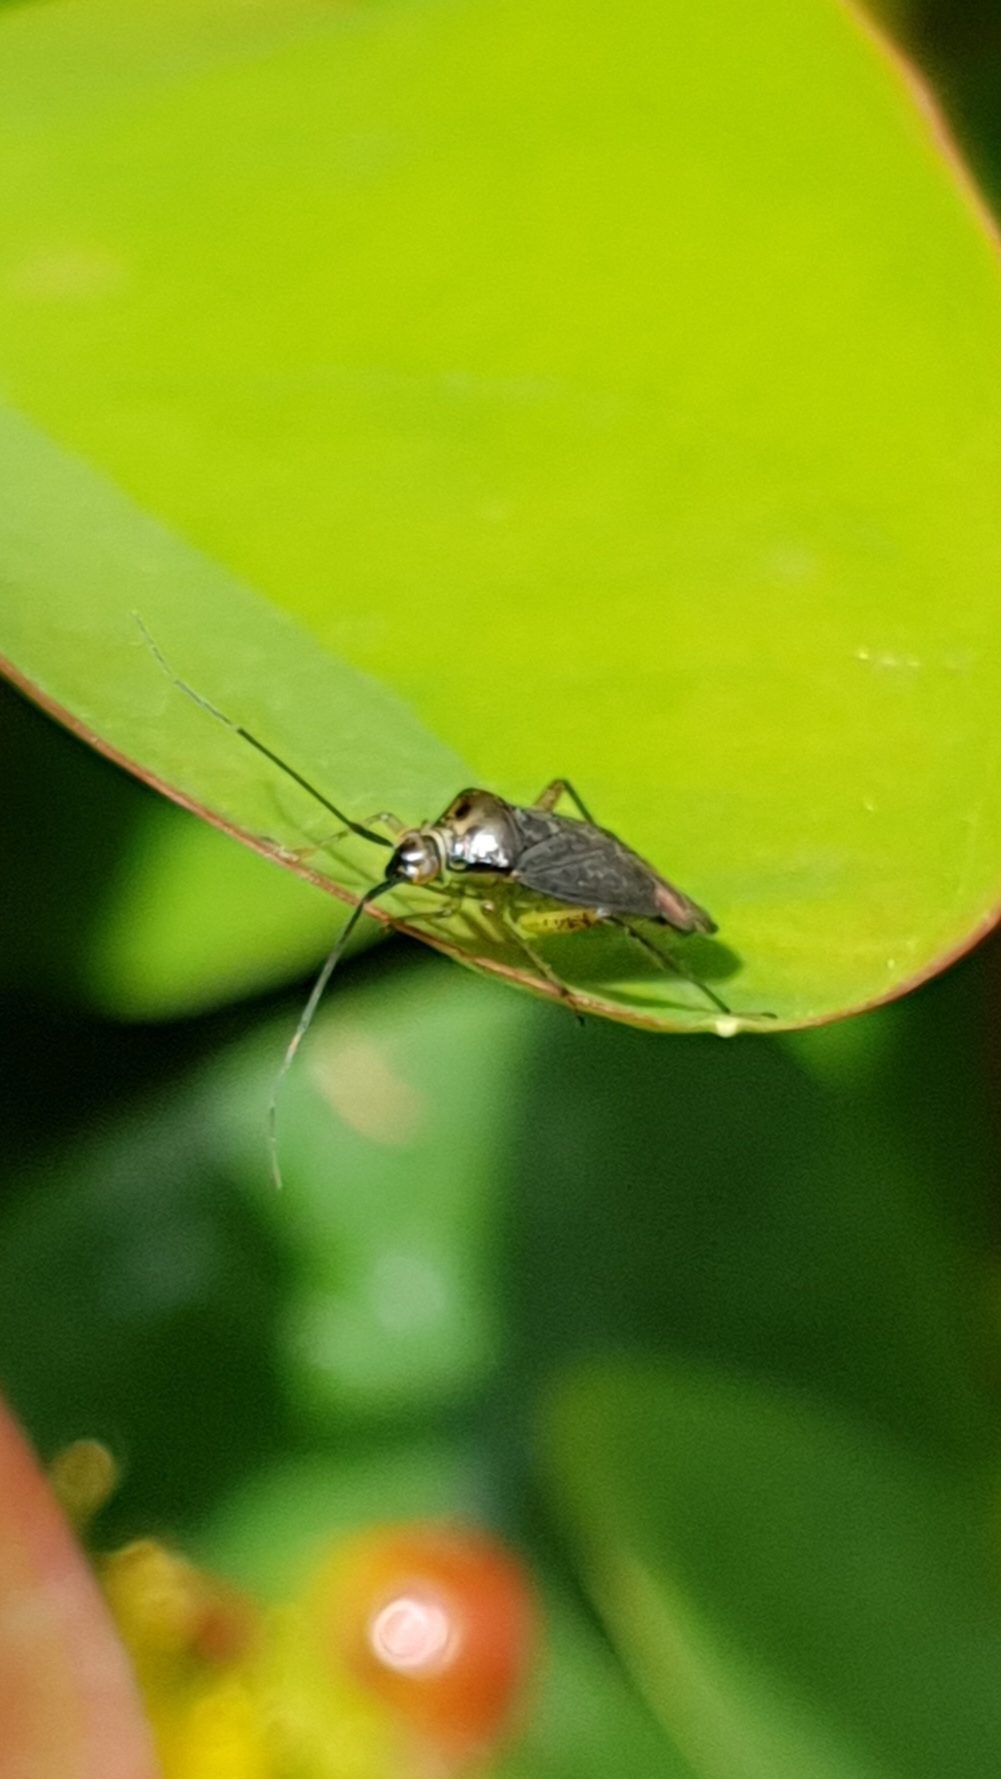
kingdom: Animalia
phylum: Arthropoda
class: Insecta
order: Hemiptera
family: Miridae
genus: Closterotomus
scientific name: Closterotomus trivialis
